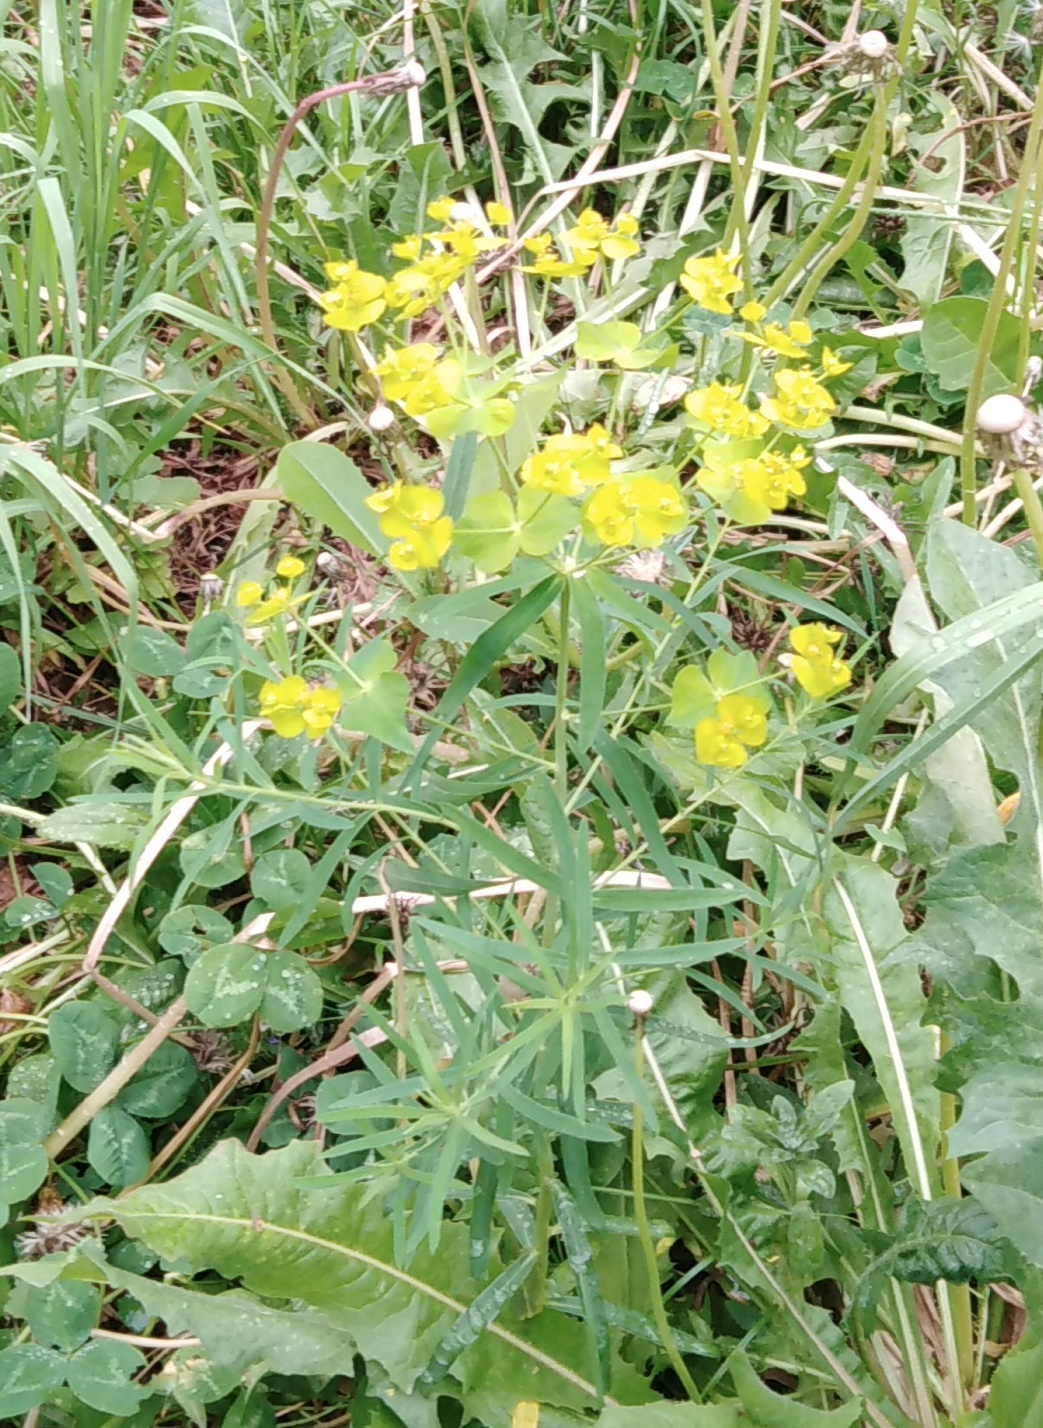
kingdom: Plantae
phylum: Tracheophyta
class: Magnoliopsida
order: Malpighiales
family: Euphorbiaceae
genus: Euphorbia
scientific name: Euphorbia virgata
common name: Leafy spurge
